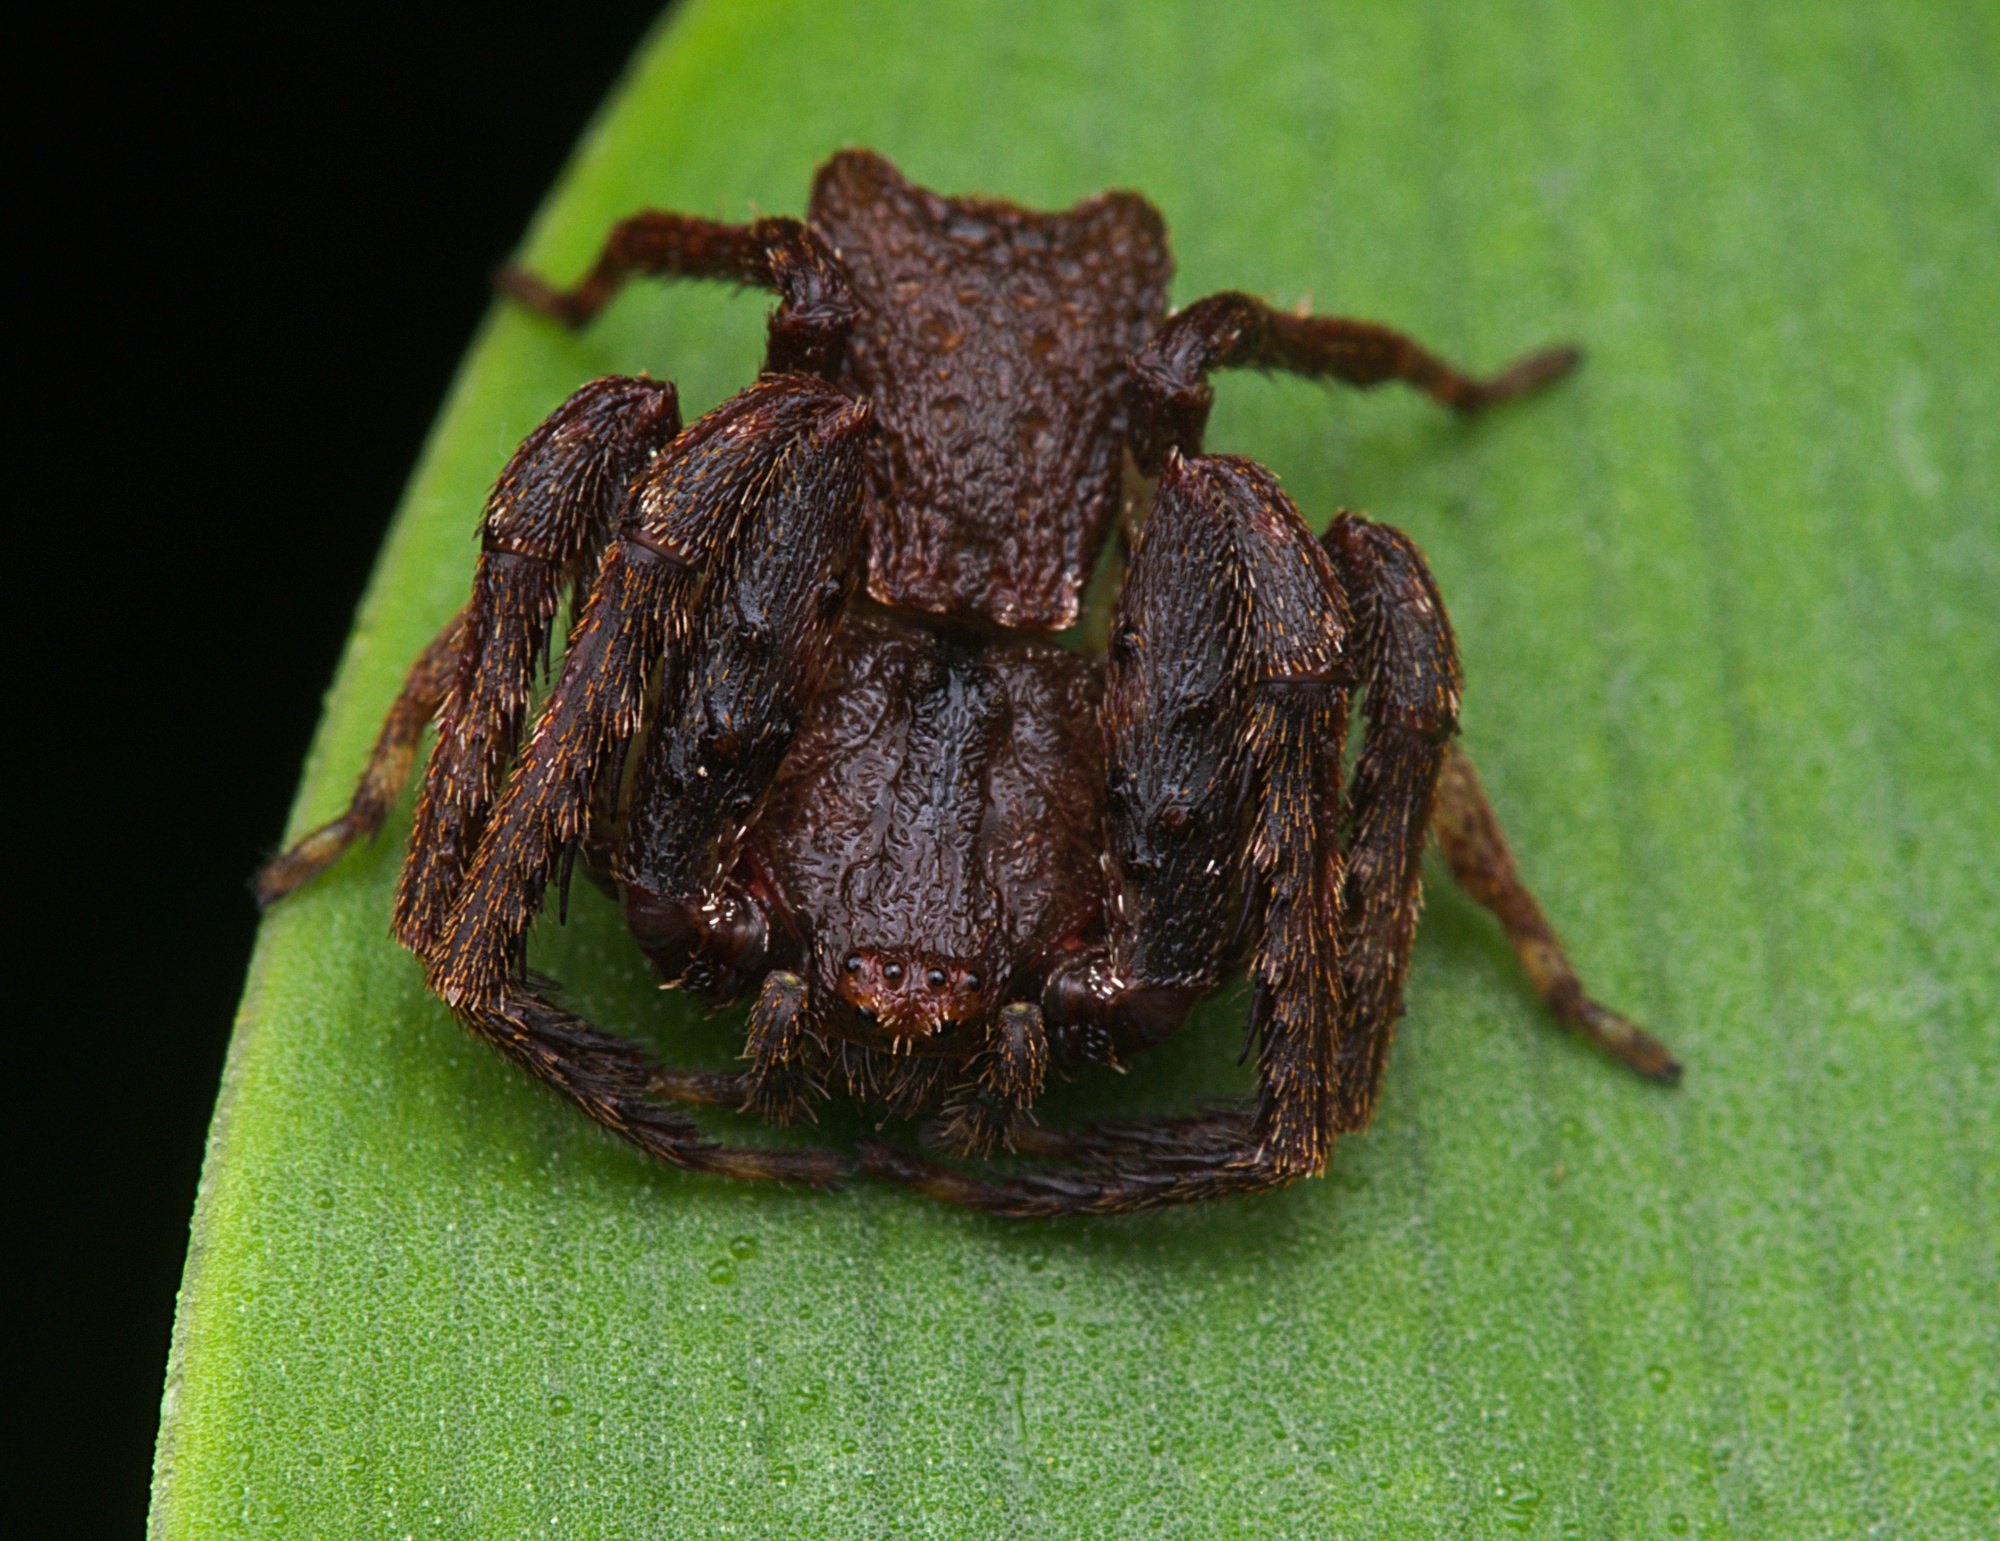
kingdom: Animalia
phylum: Arthropoda
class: Arachnida
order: Araneae
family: Thomisidae
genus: Sidymella
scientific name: Sidymella angularis
